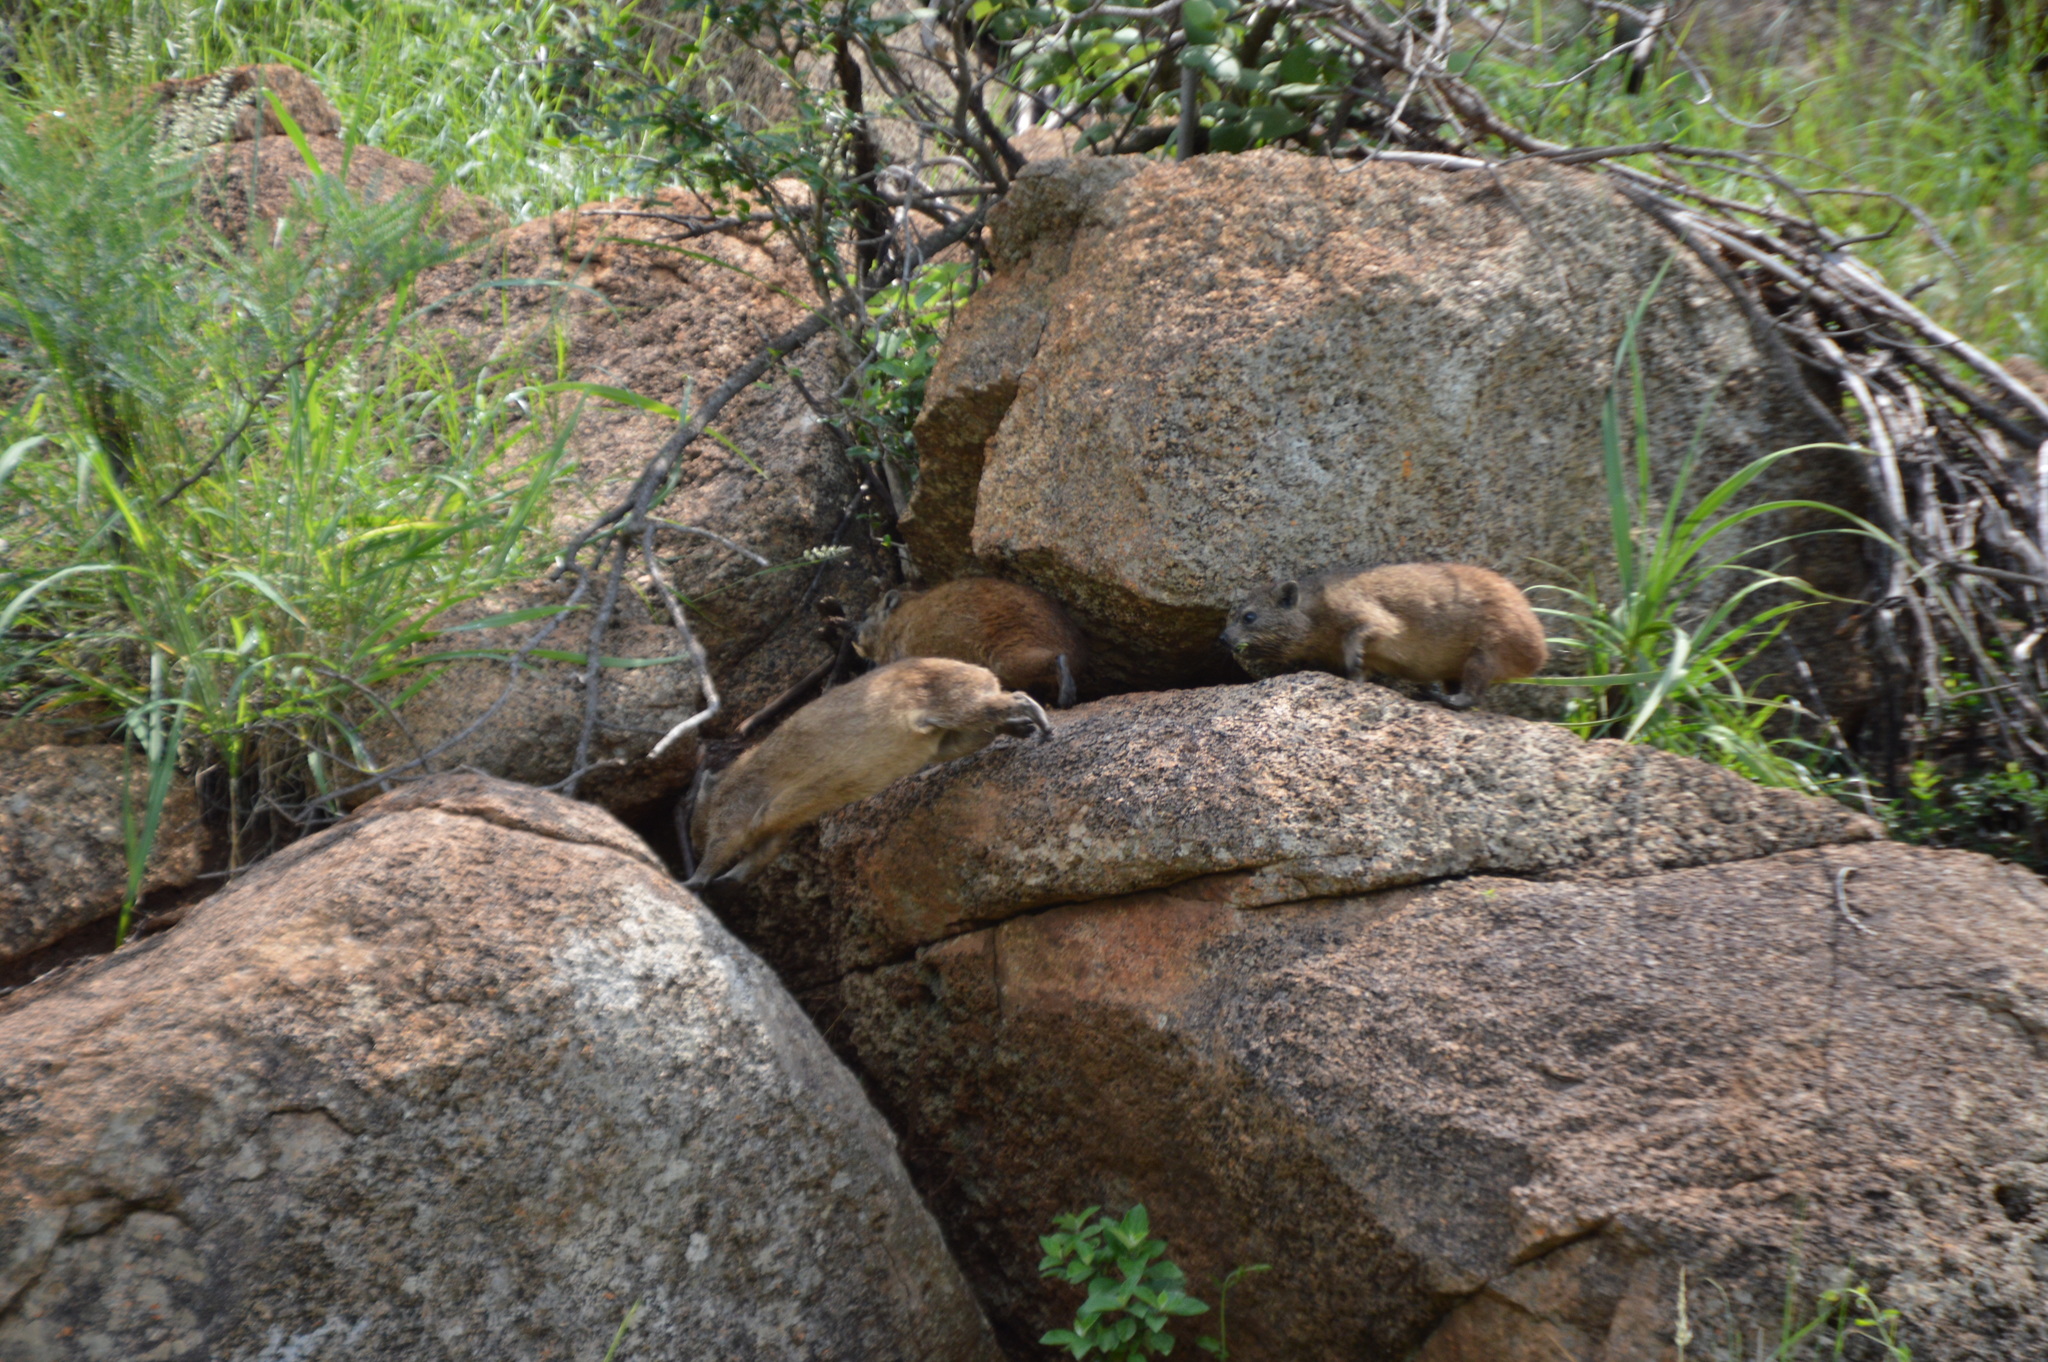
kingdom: Animalia
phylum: Chordata
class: Mammalia
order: Hyracoidea
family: Procaviidae
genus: Procavia
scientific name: Procavia capensis
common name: Rock hyrax
